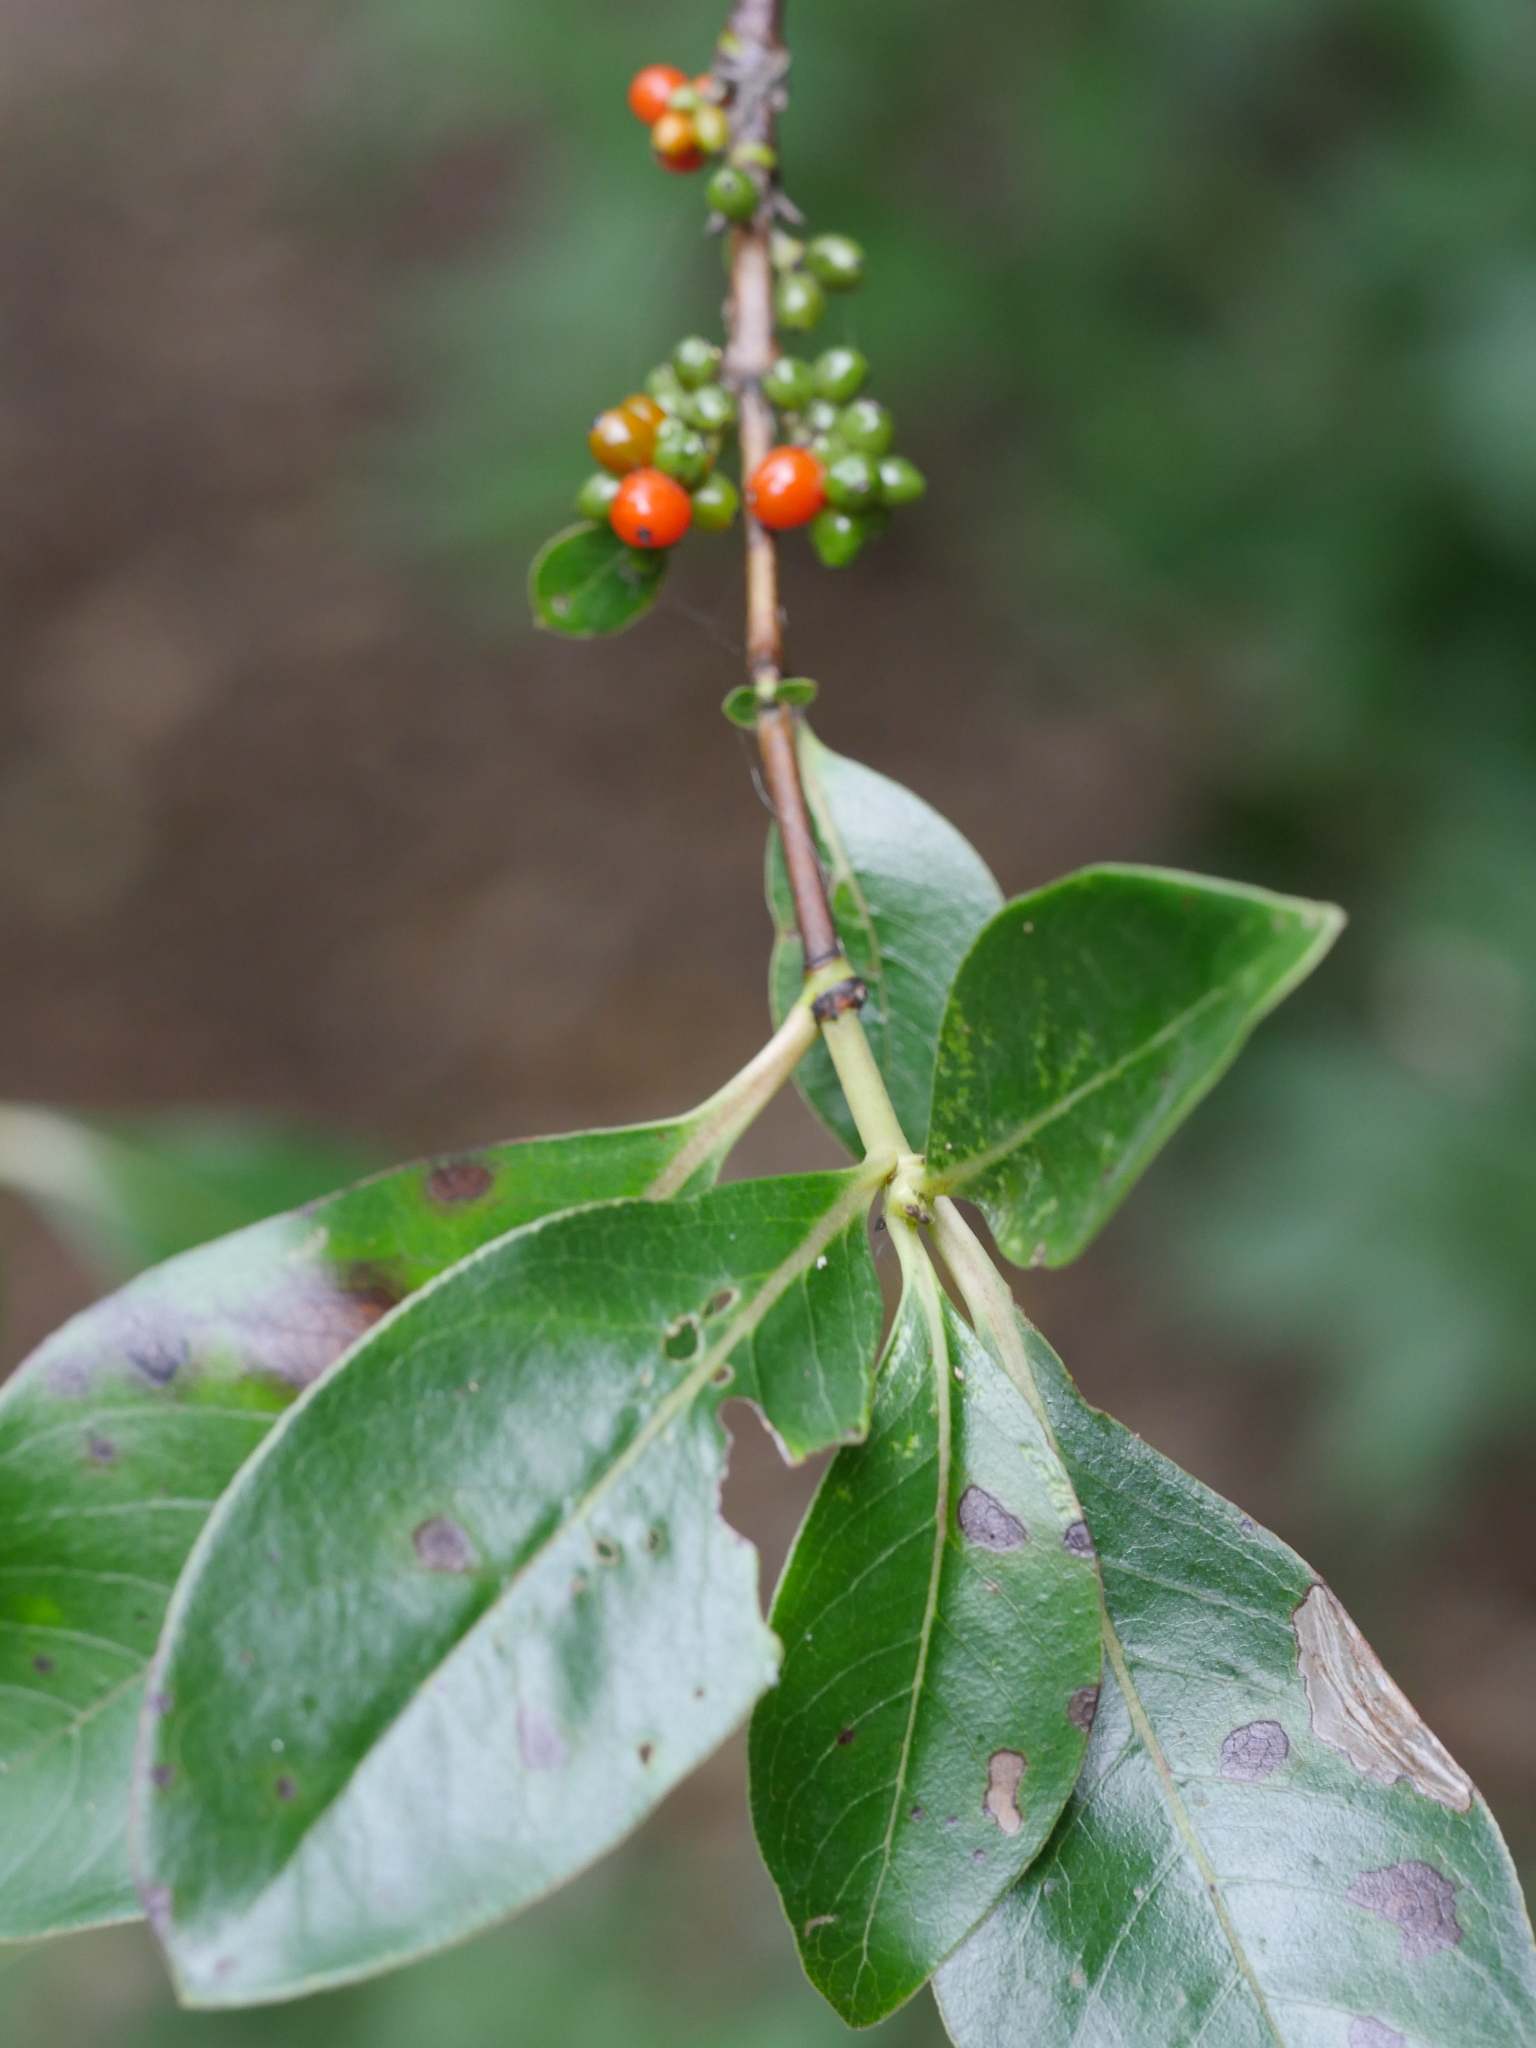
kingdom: Plantae
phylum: Tracheophyta
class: Magnoliopsida
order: Gentianales
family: Rubiaceae
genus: Coprosma
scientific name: Coprosma robusta
